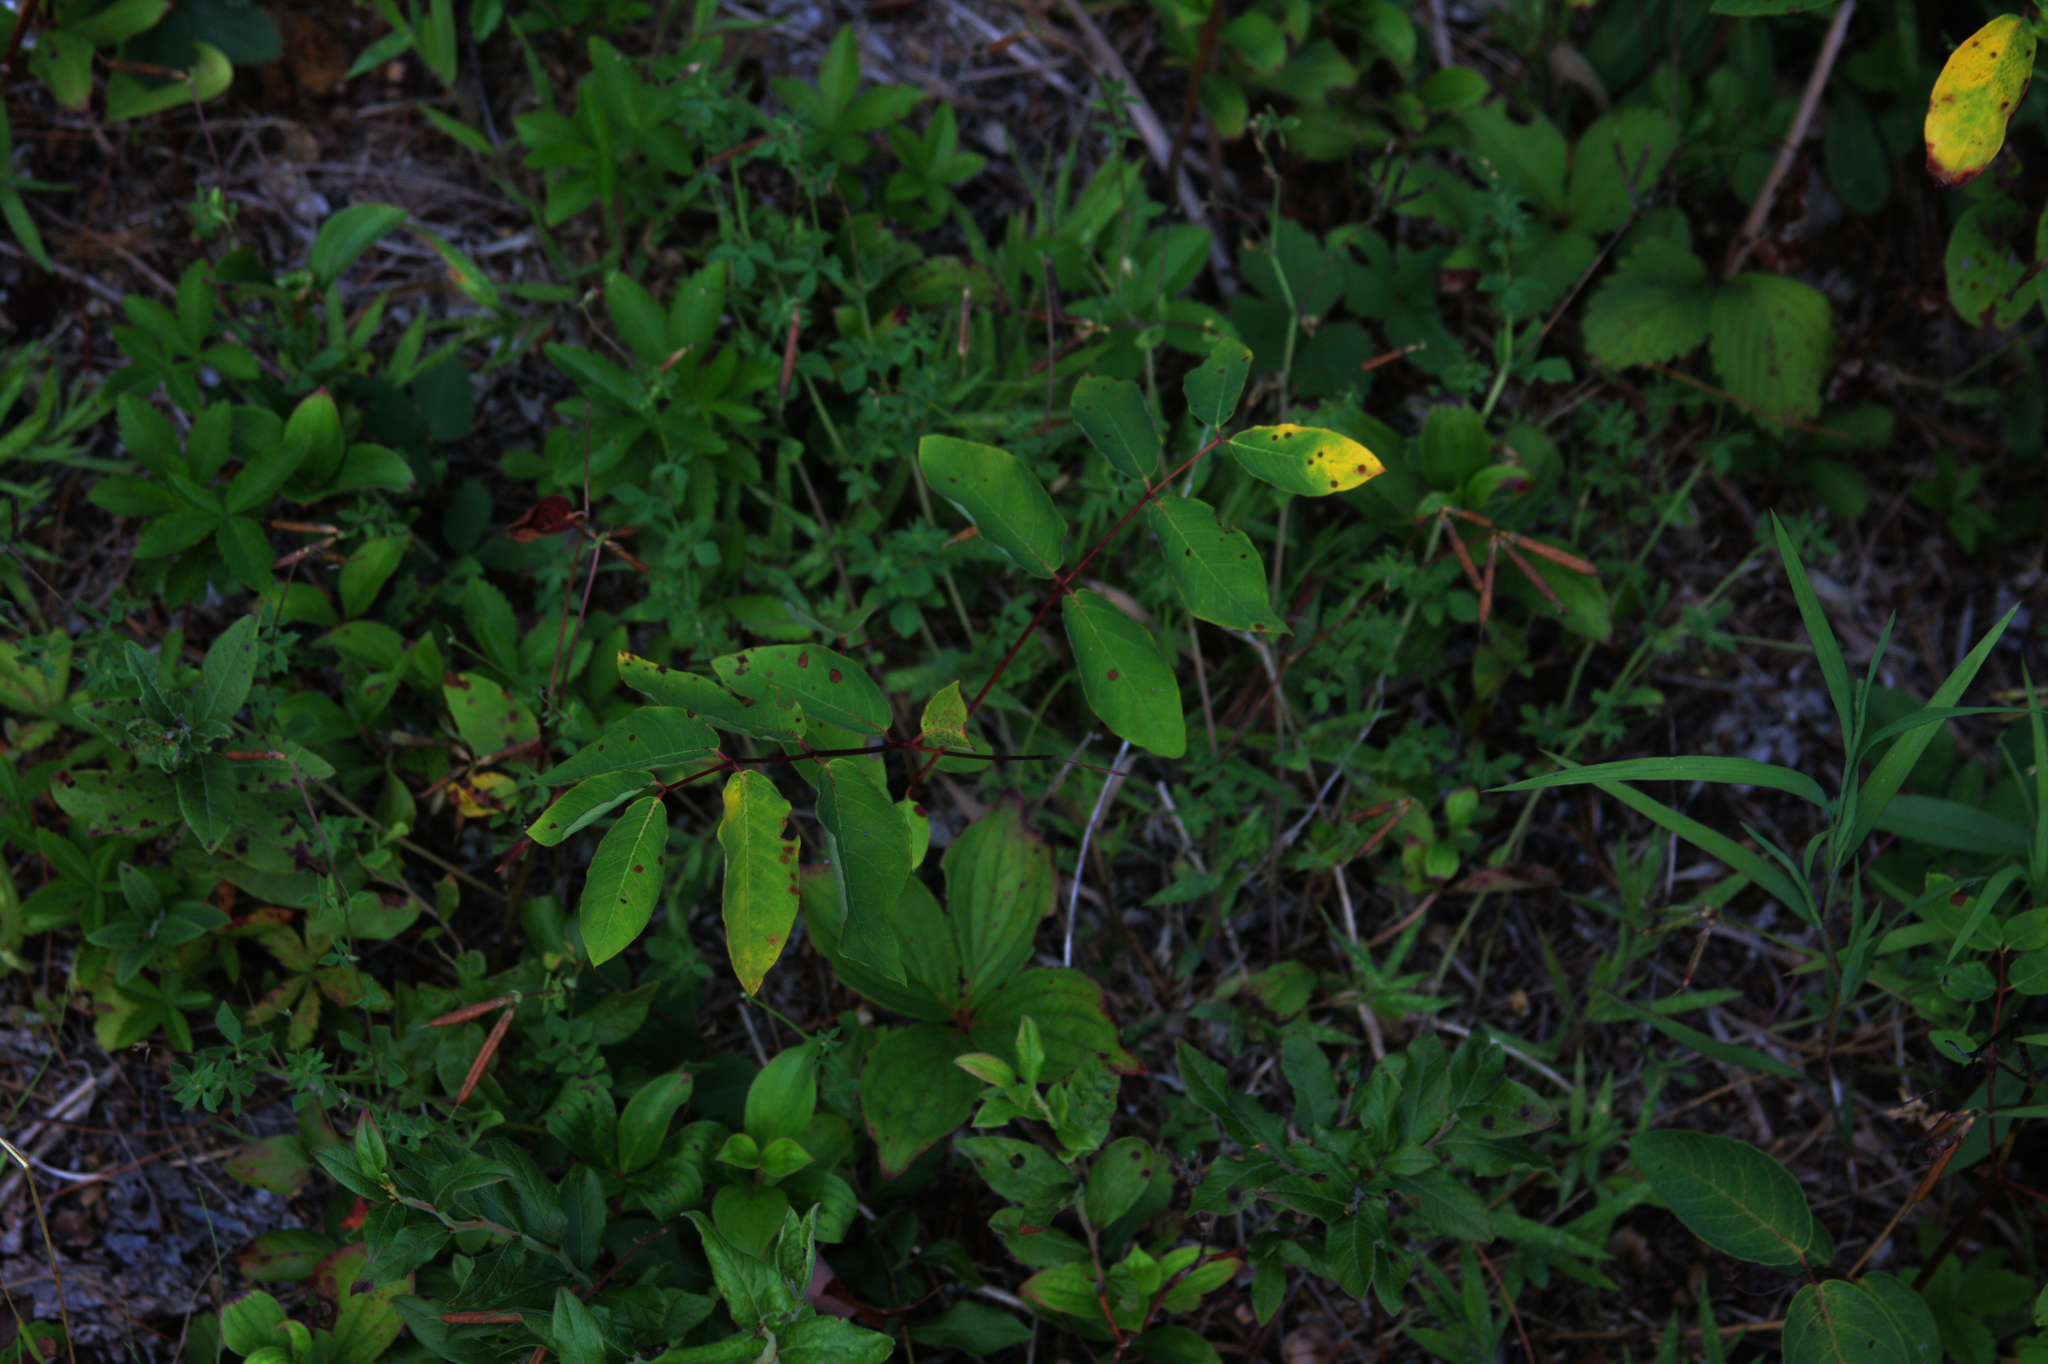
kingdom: Plantae
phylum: Tracheophyta
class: Magnoliopsida
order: Gentianales
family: Apocynaceae
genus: Apocynum
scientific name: Apocynum androsaemifolium
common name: Spreading dogbane
